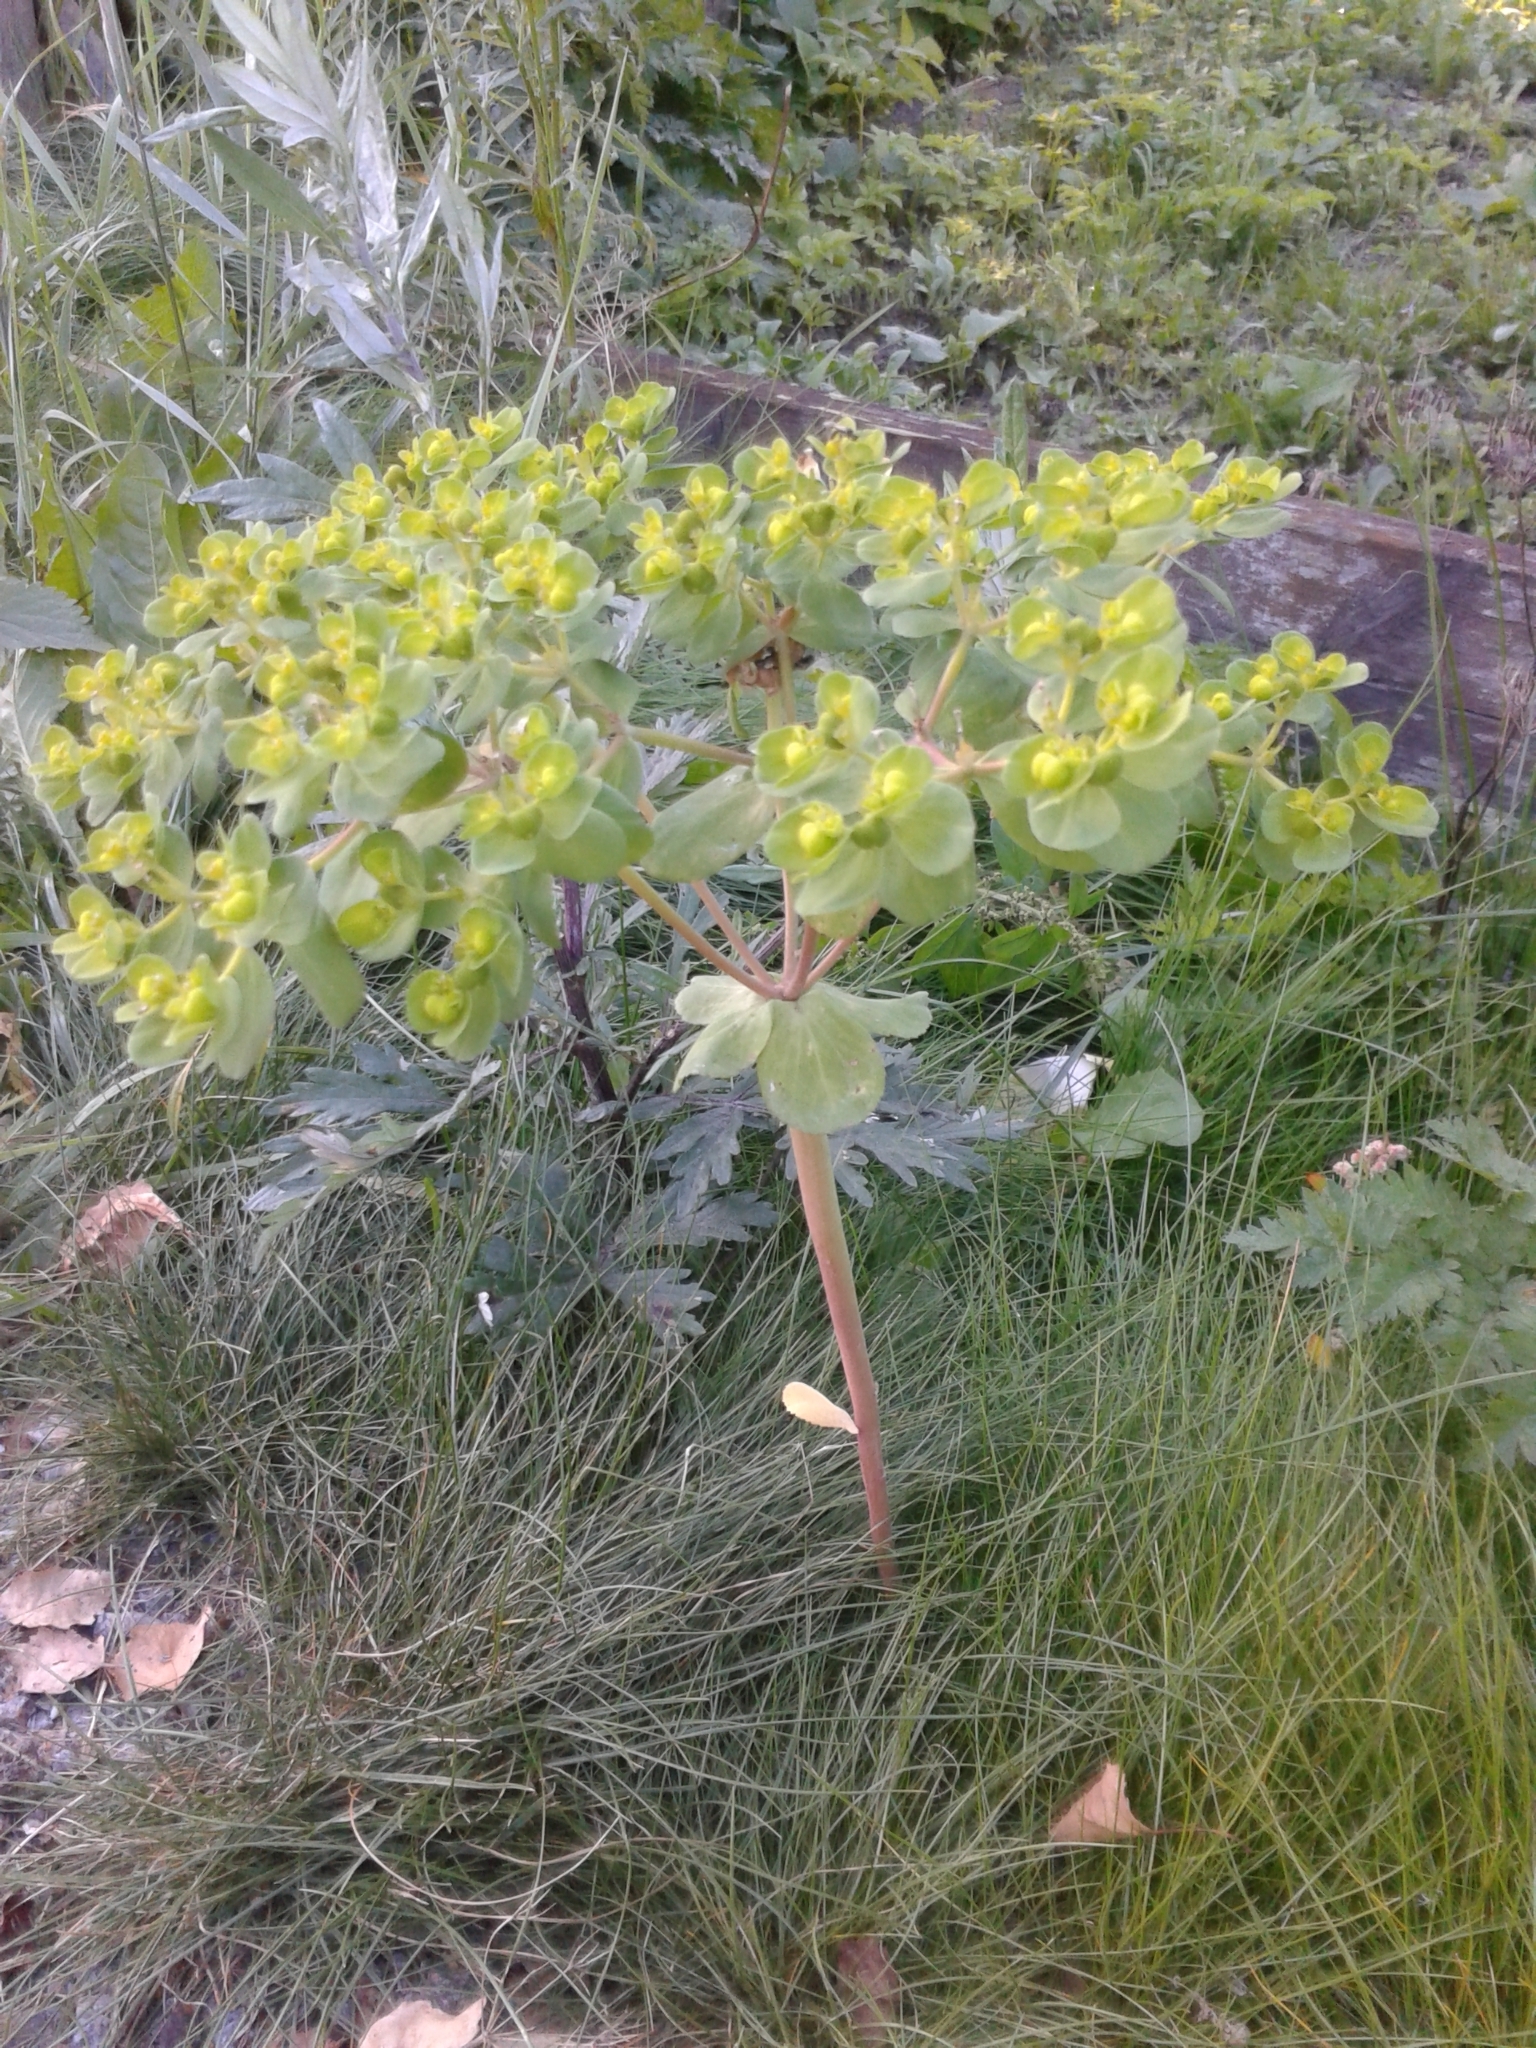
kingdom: Plantae
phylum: Tracheophyta
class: Magnoliopsida
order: Malpighiales
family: Euphorbiaceae
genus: Euphorbia
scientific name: Euphorbia helioscopia
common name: Sun spurge
